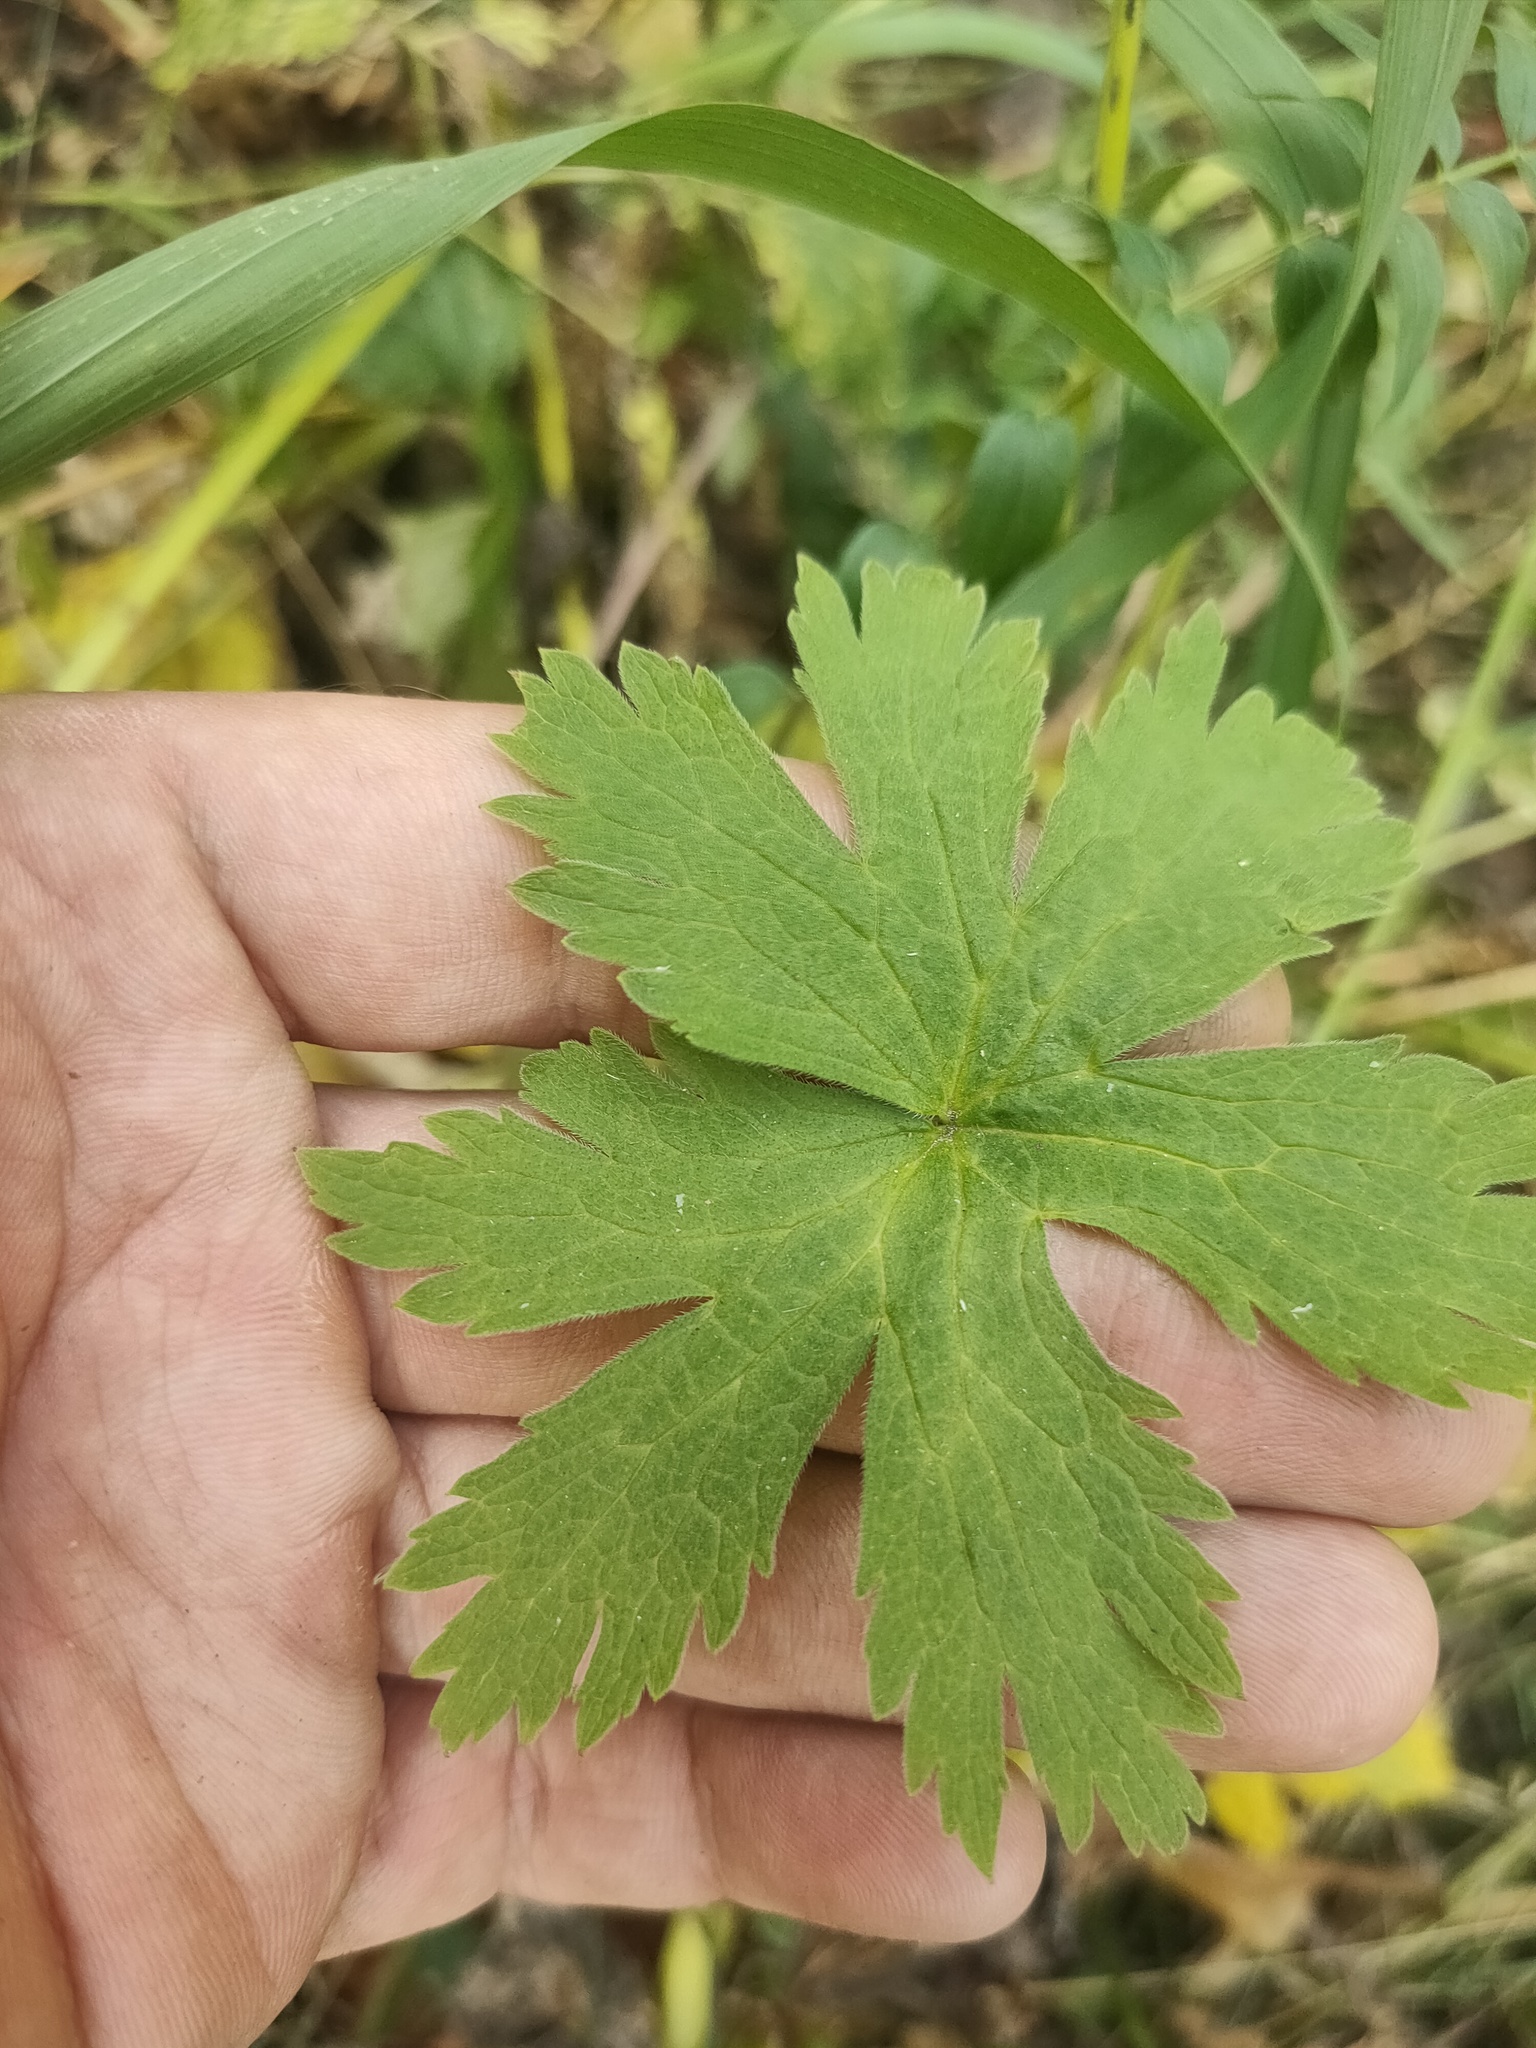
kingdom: Plantae
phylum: Tracheophyta
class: Magnoliopsida
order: Geraniales
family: Geraniaceae
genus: Geranium
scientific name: Geranium sylvaticum
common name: Wood crane's-bill
